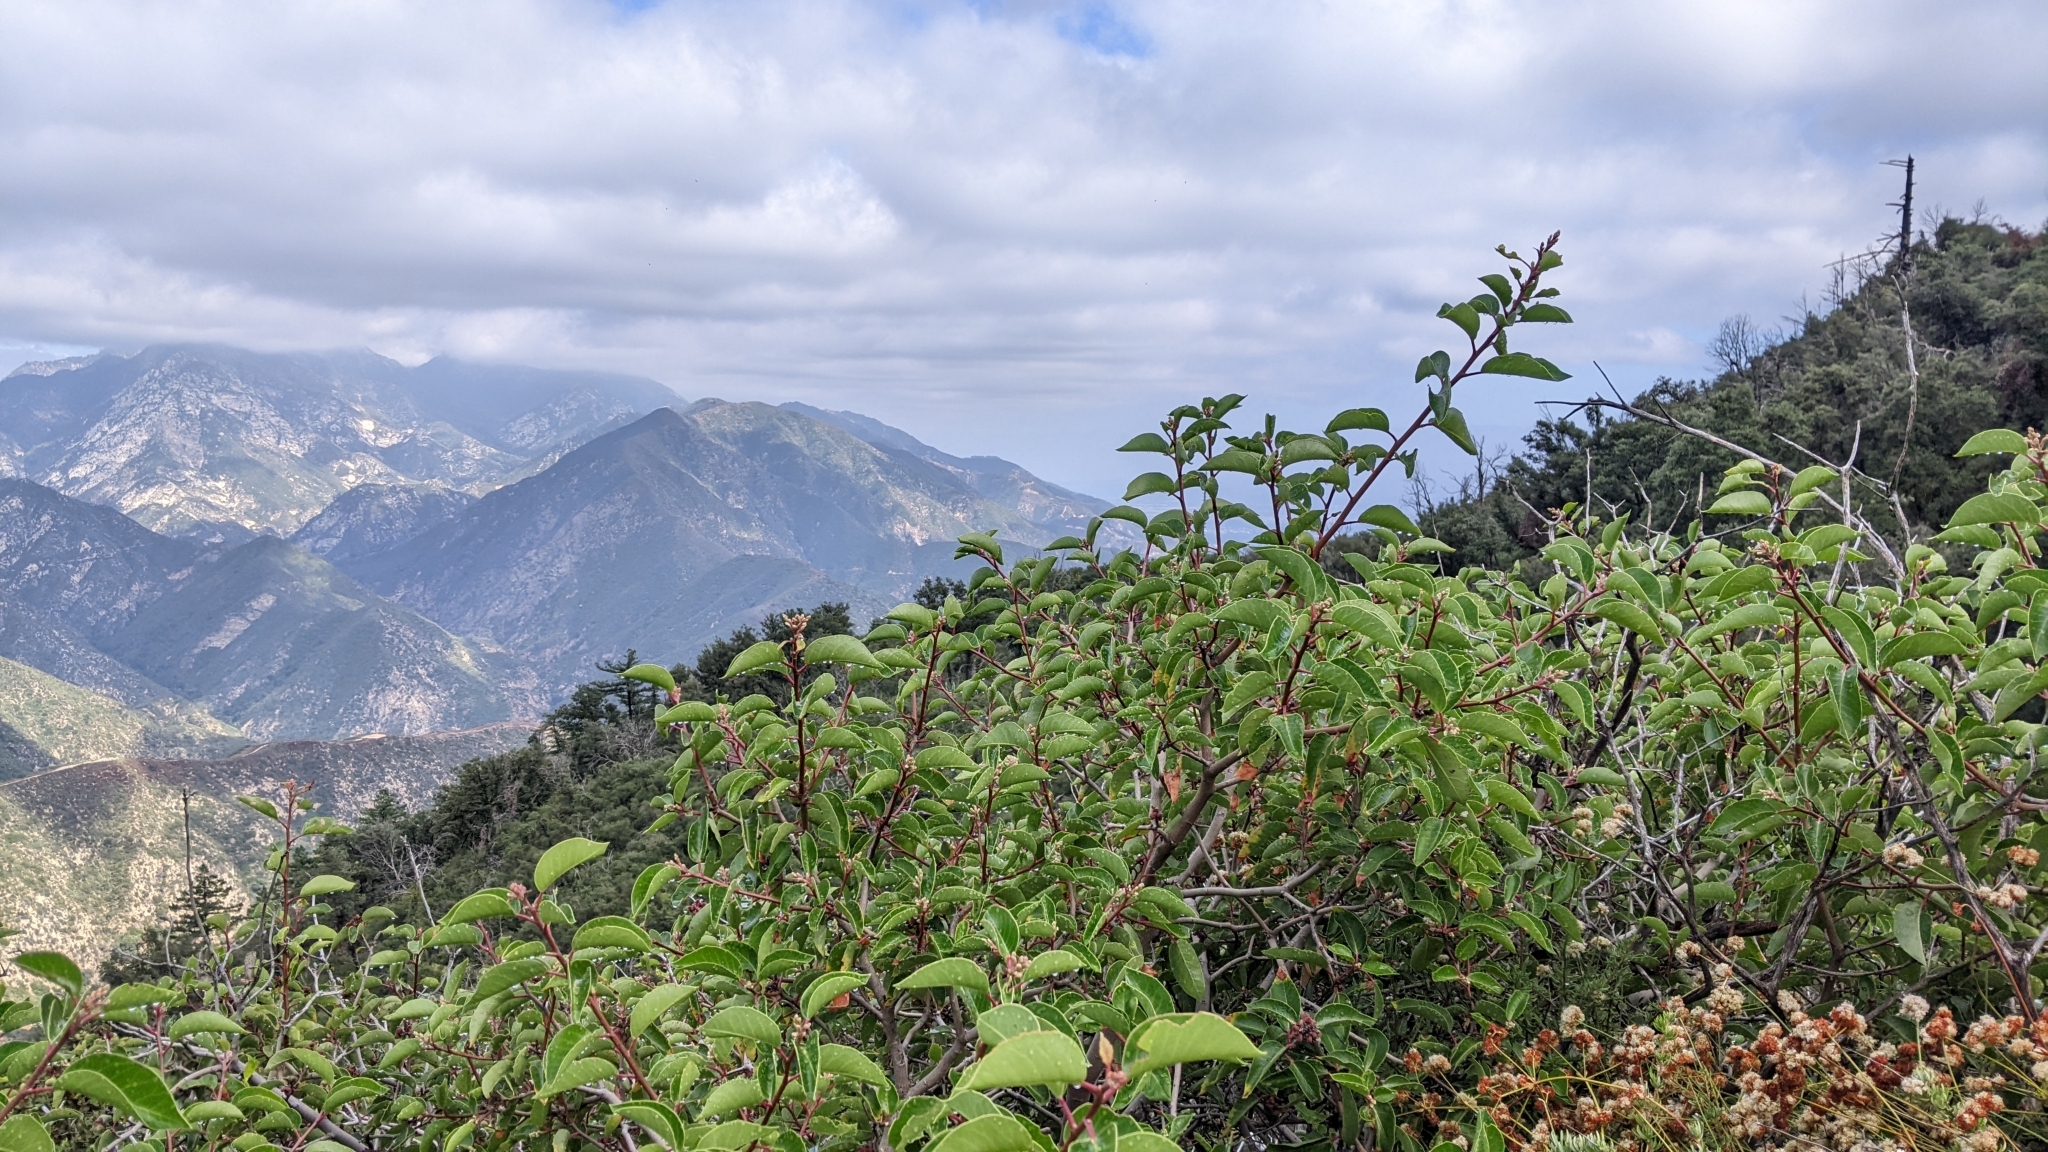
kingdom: Plantae
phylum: Tracheophyta
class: Magnoliopsida
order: Sapindales
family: Anacardiaceae
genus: Rhus
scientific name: Rhus ovata
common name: Sugar sumac
